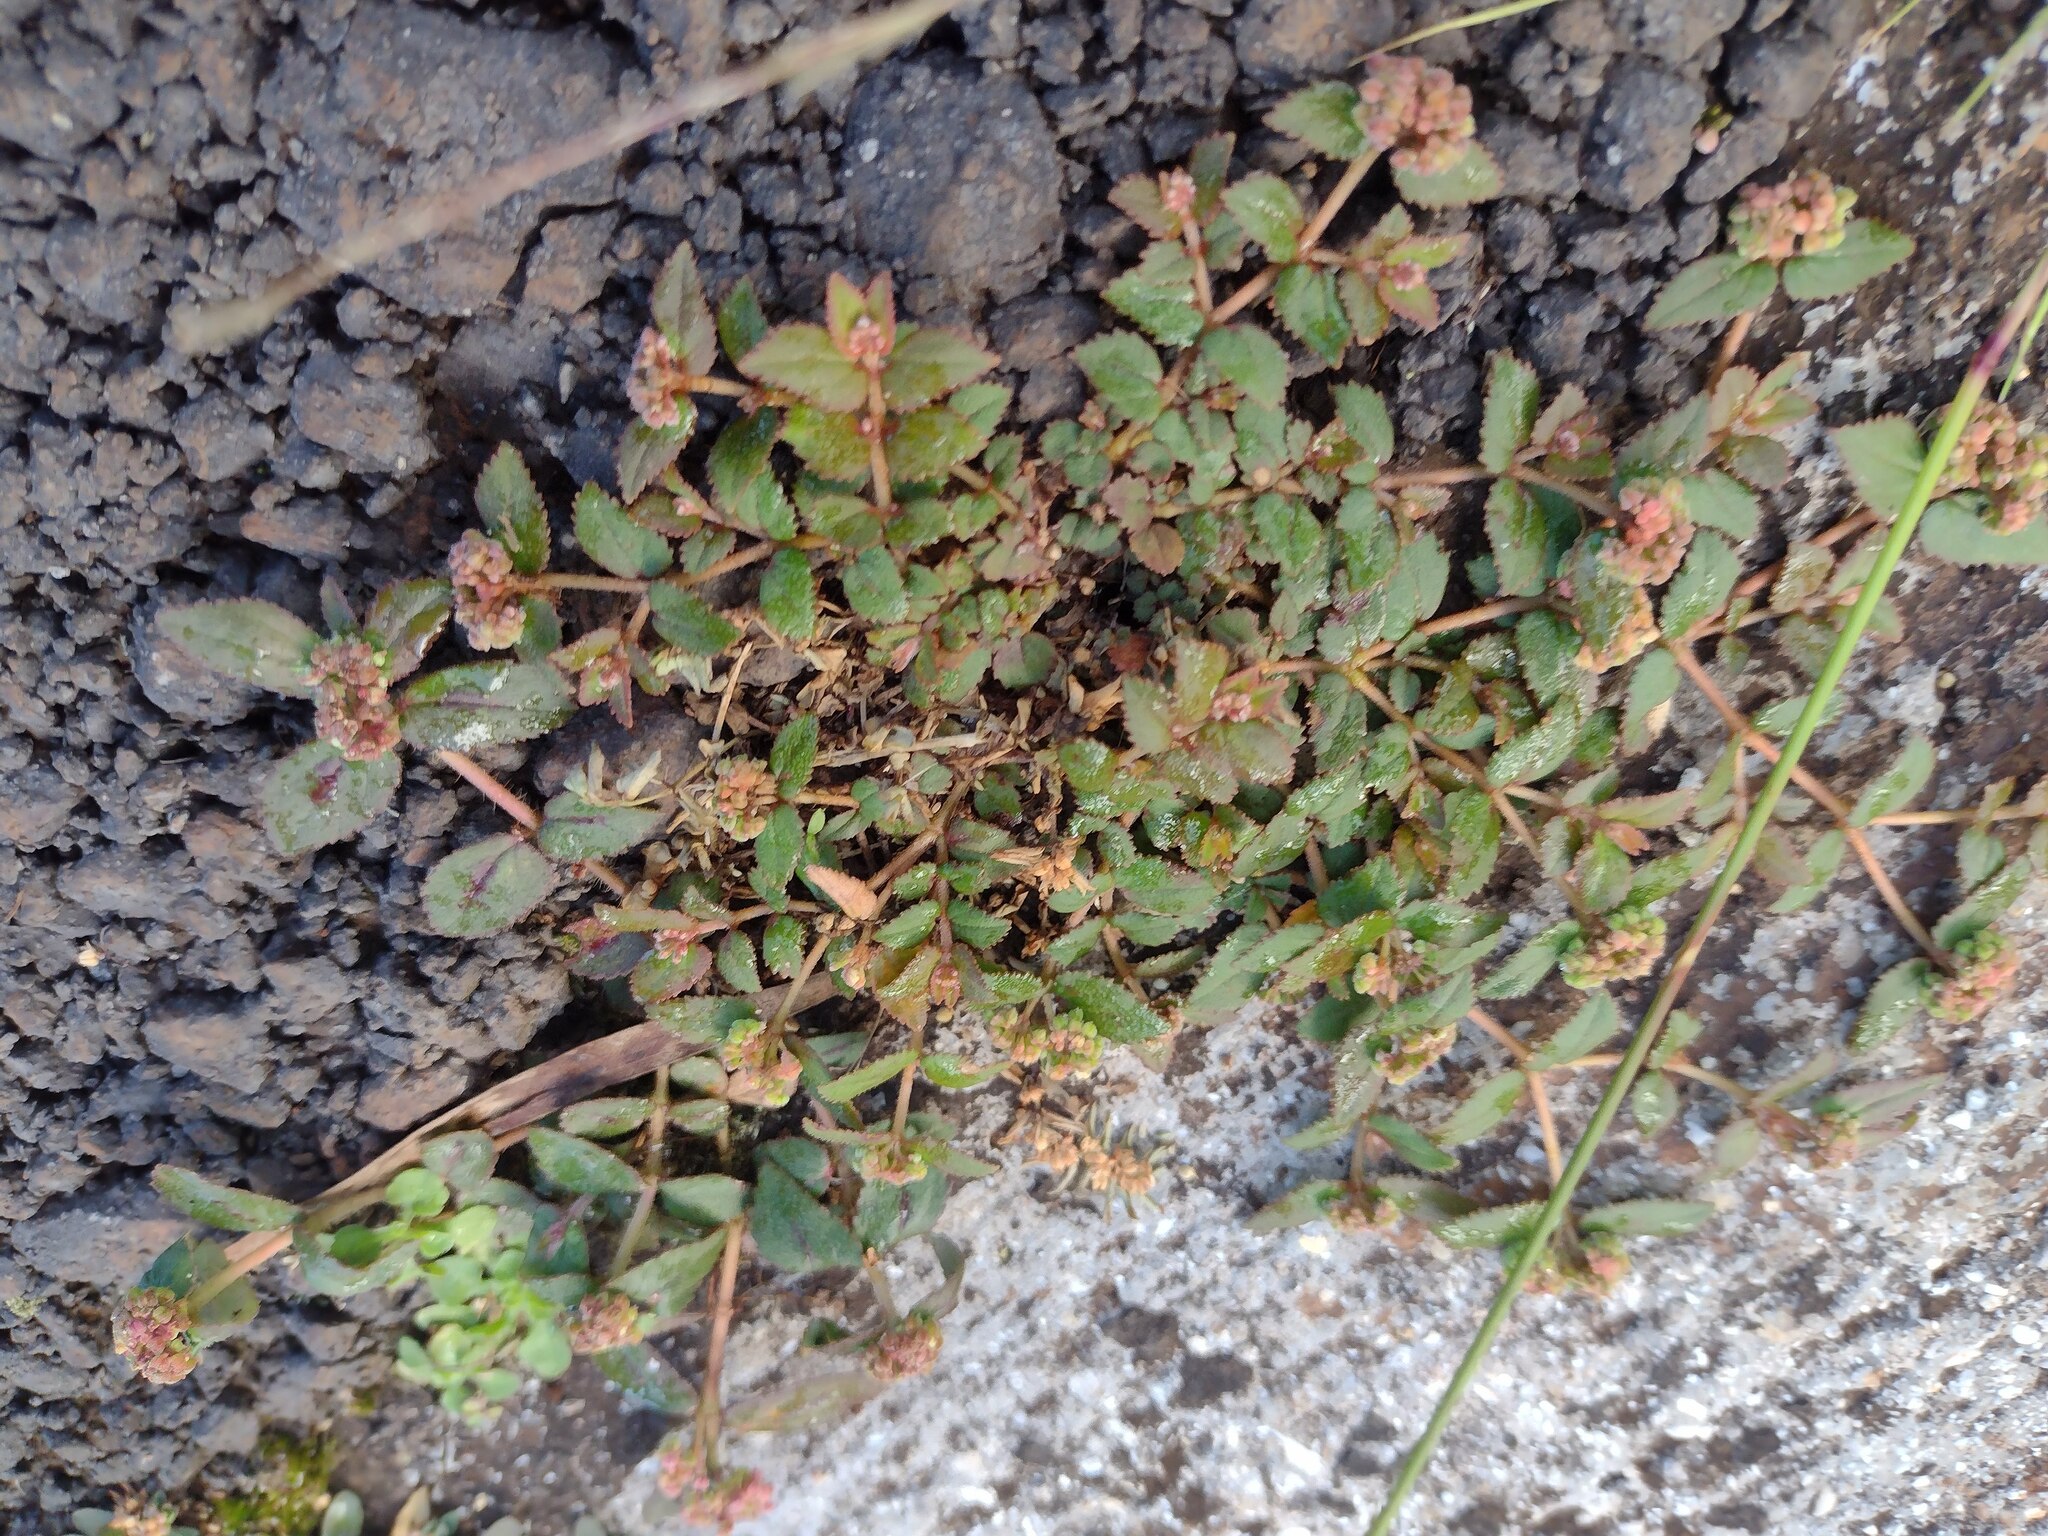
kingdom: Plantae
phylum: Tracheophyta
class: Magnoliopsida
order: Malpighiales
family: Euphorbiaceae
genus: Euphorbia
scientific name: Euphorbia ophthalmica
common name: Florida hammock sandmat
